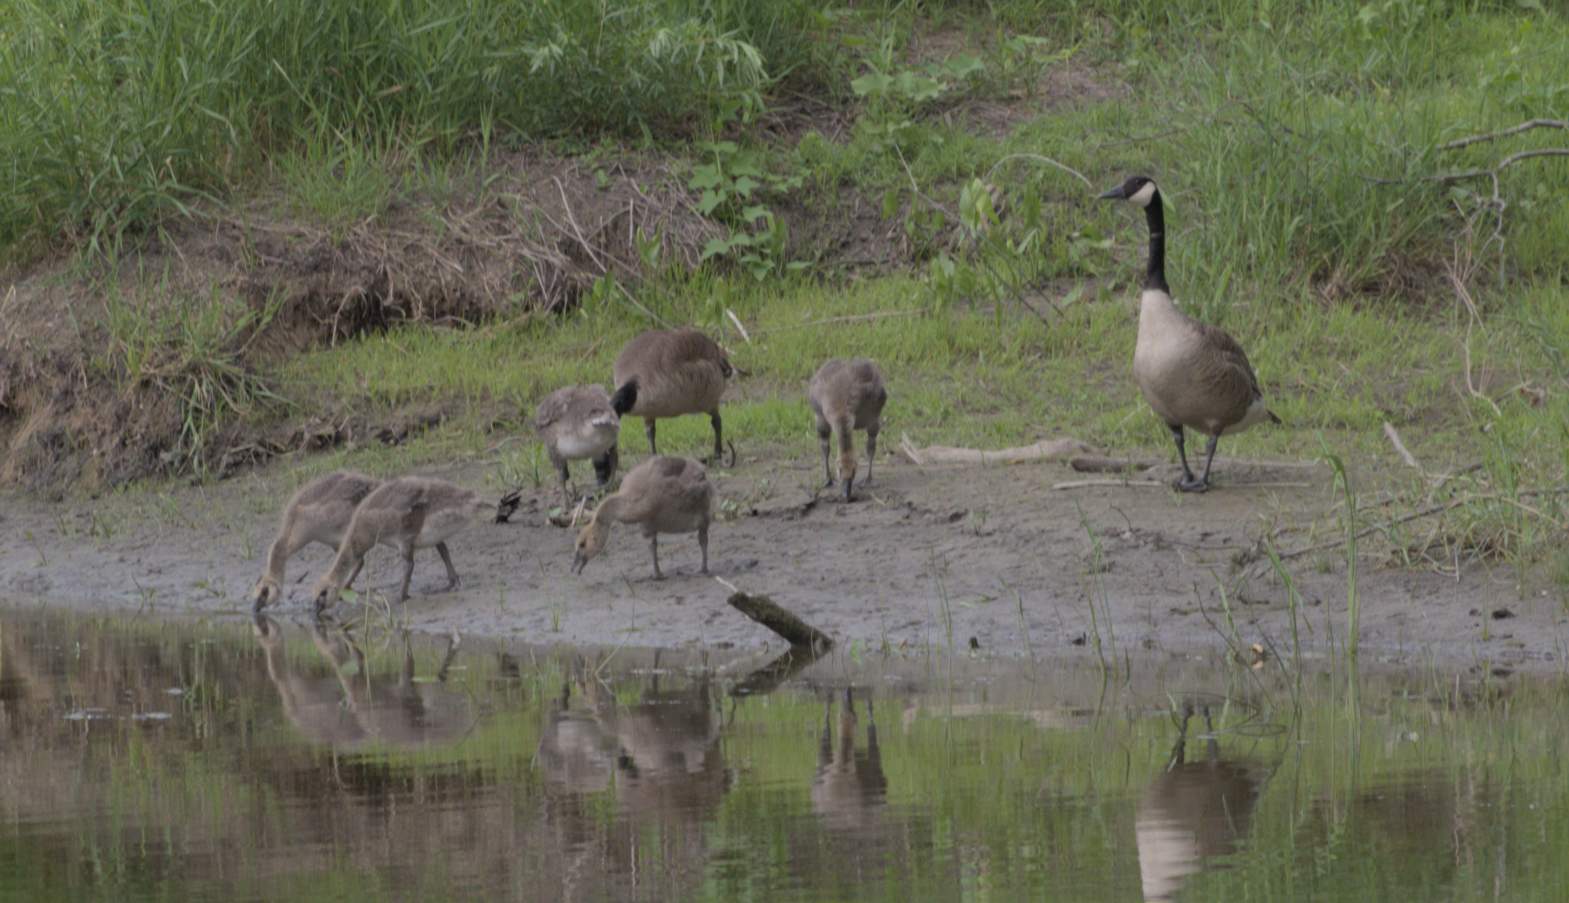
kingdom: Animalia
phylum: Chordata
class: Aves
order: Anseriformes
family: Anatidae
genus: Branta
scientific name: Branta canadensis
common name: Canada goose
